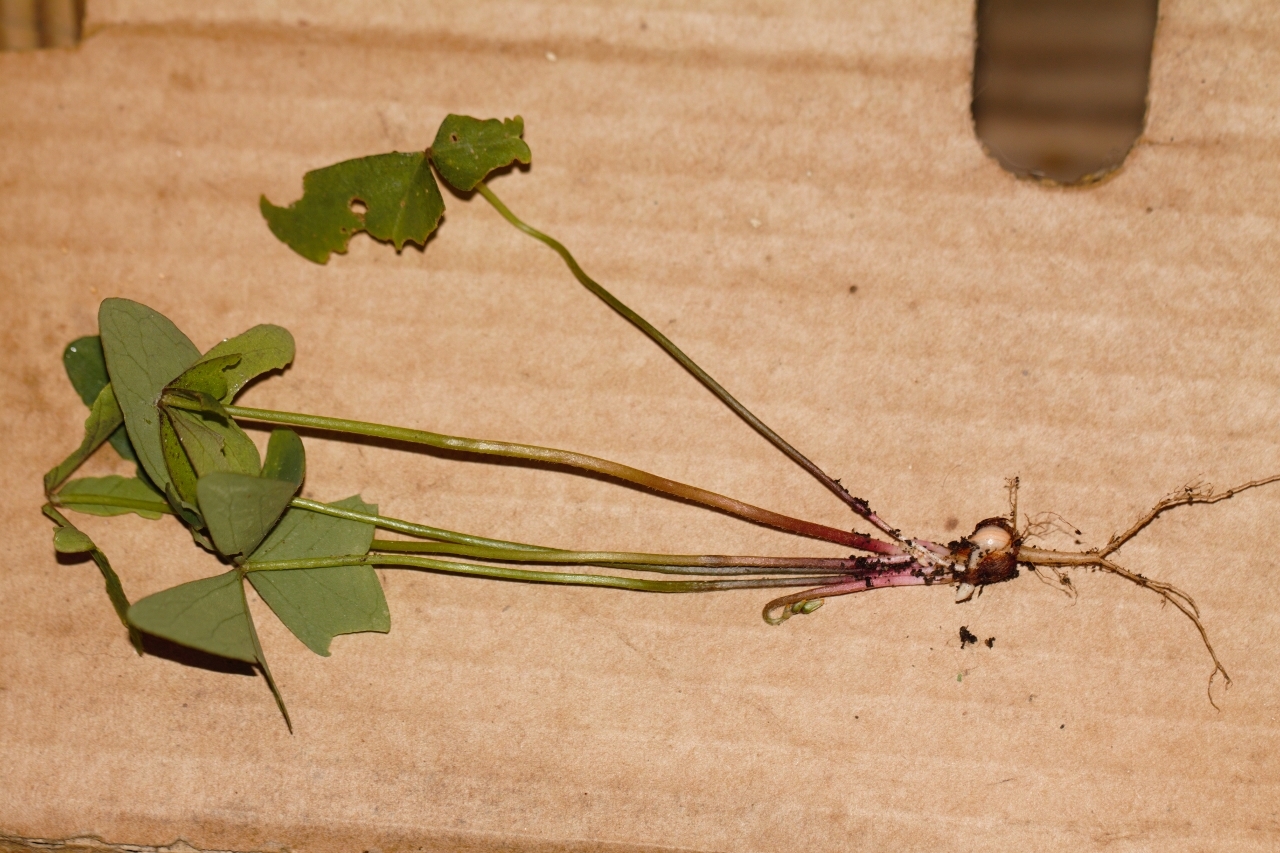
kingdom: Plantae
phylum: Tracheophyta
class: Magnoliopsida
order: Oxalidales
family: Oxalidaceae
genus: Oxalis
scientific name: Oxalis latifolia
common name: Garden pink-sorrel
